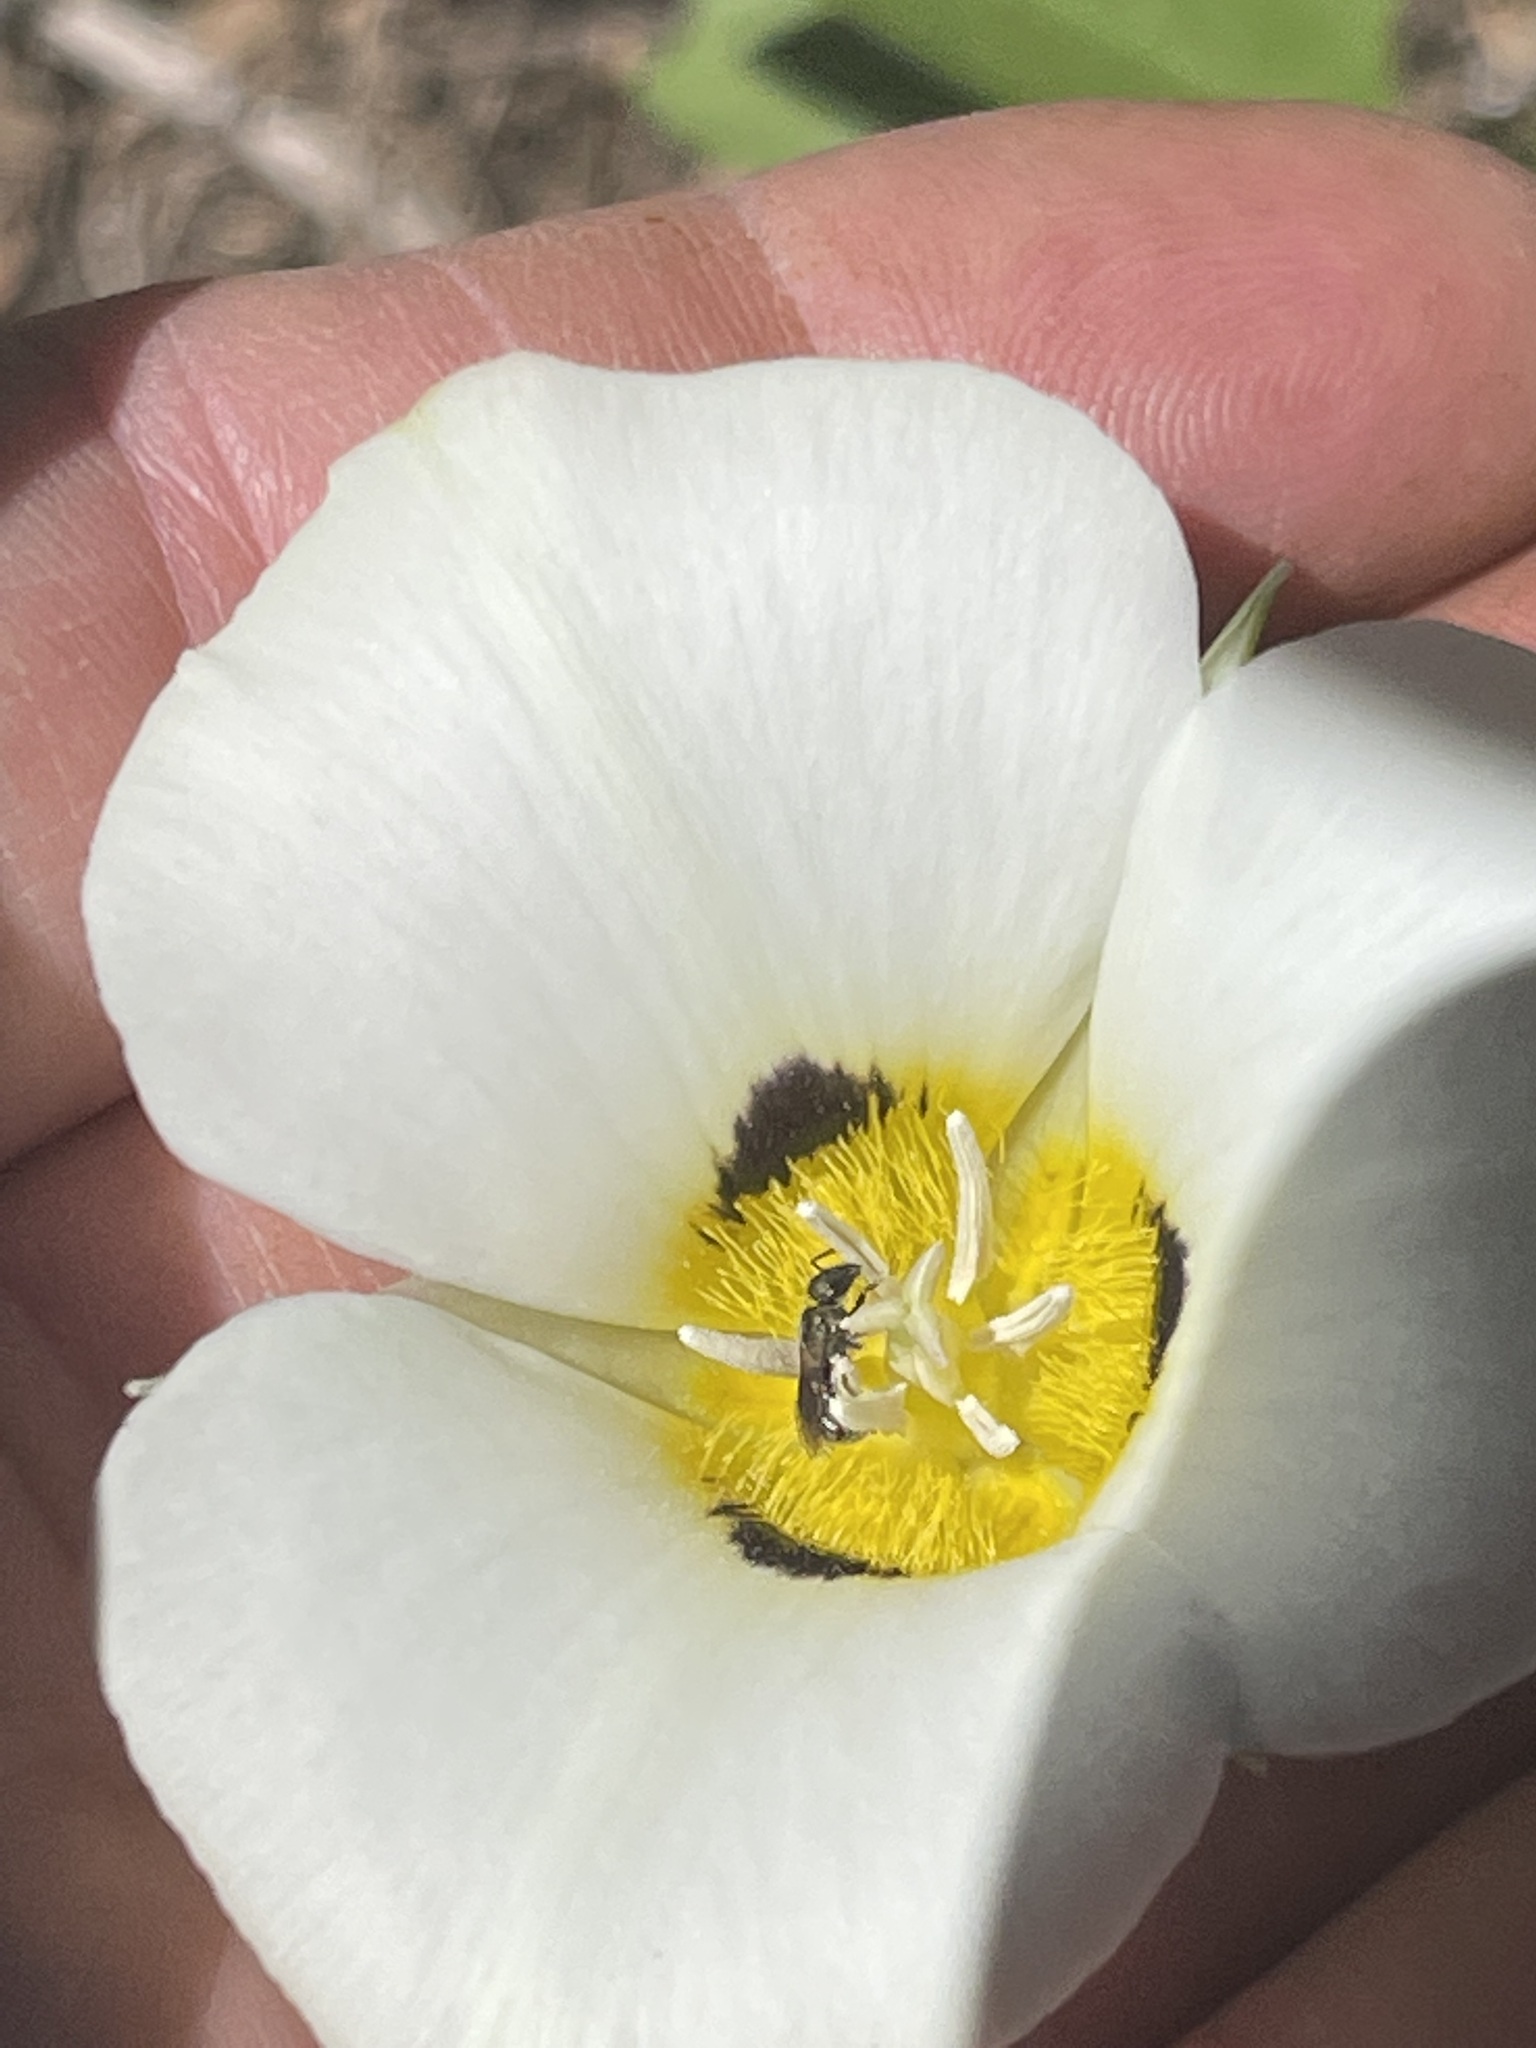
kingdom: Plantae
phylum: Tracheophyta
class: Liliopsida
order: Liliales
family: Liliaceae
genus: Calochortus
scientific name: Calochortus leichtlinii
